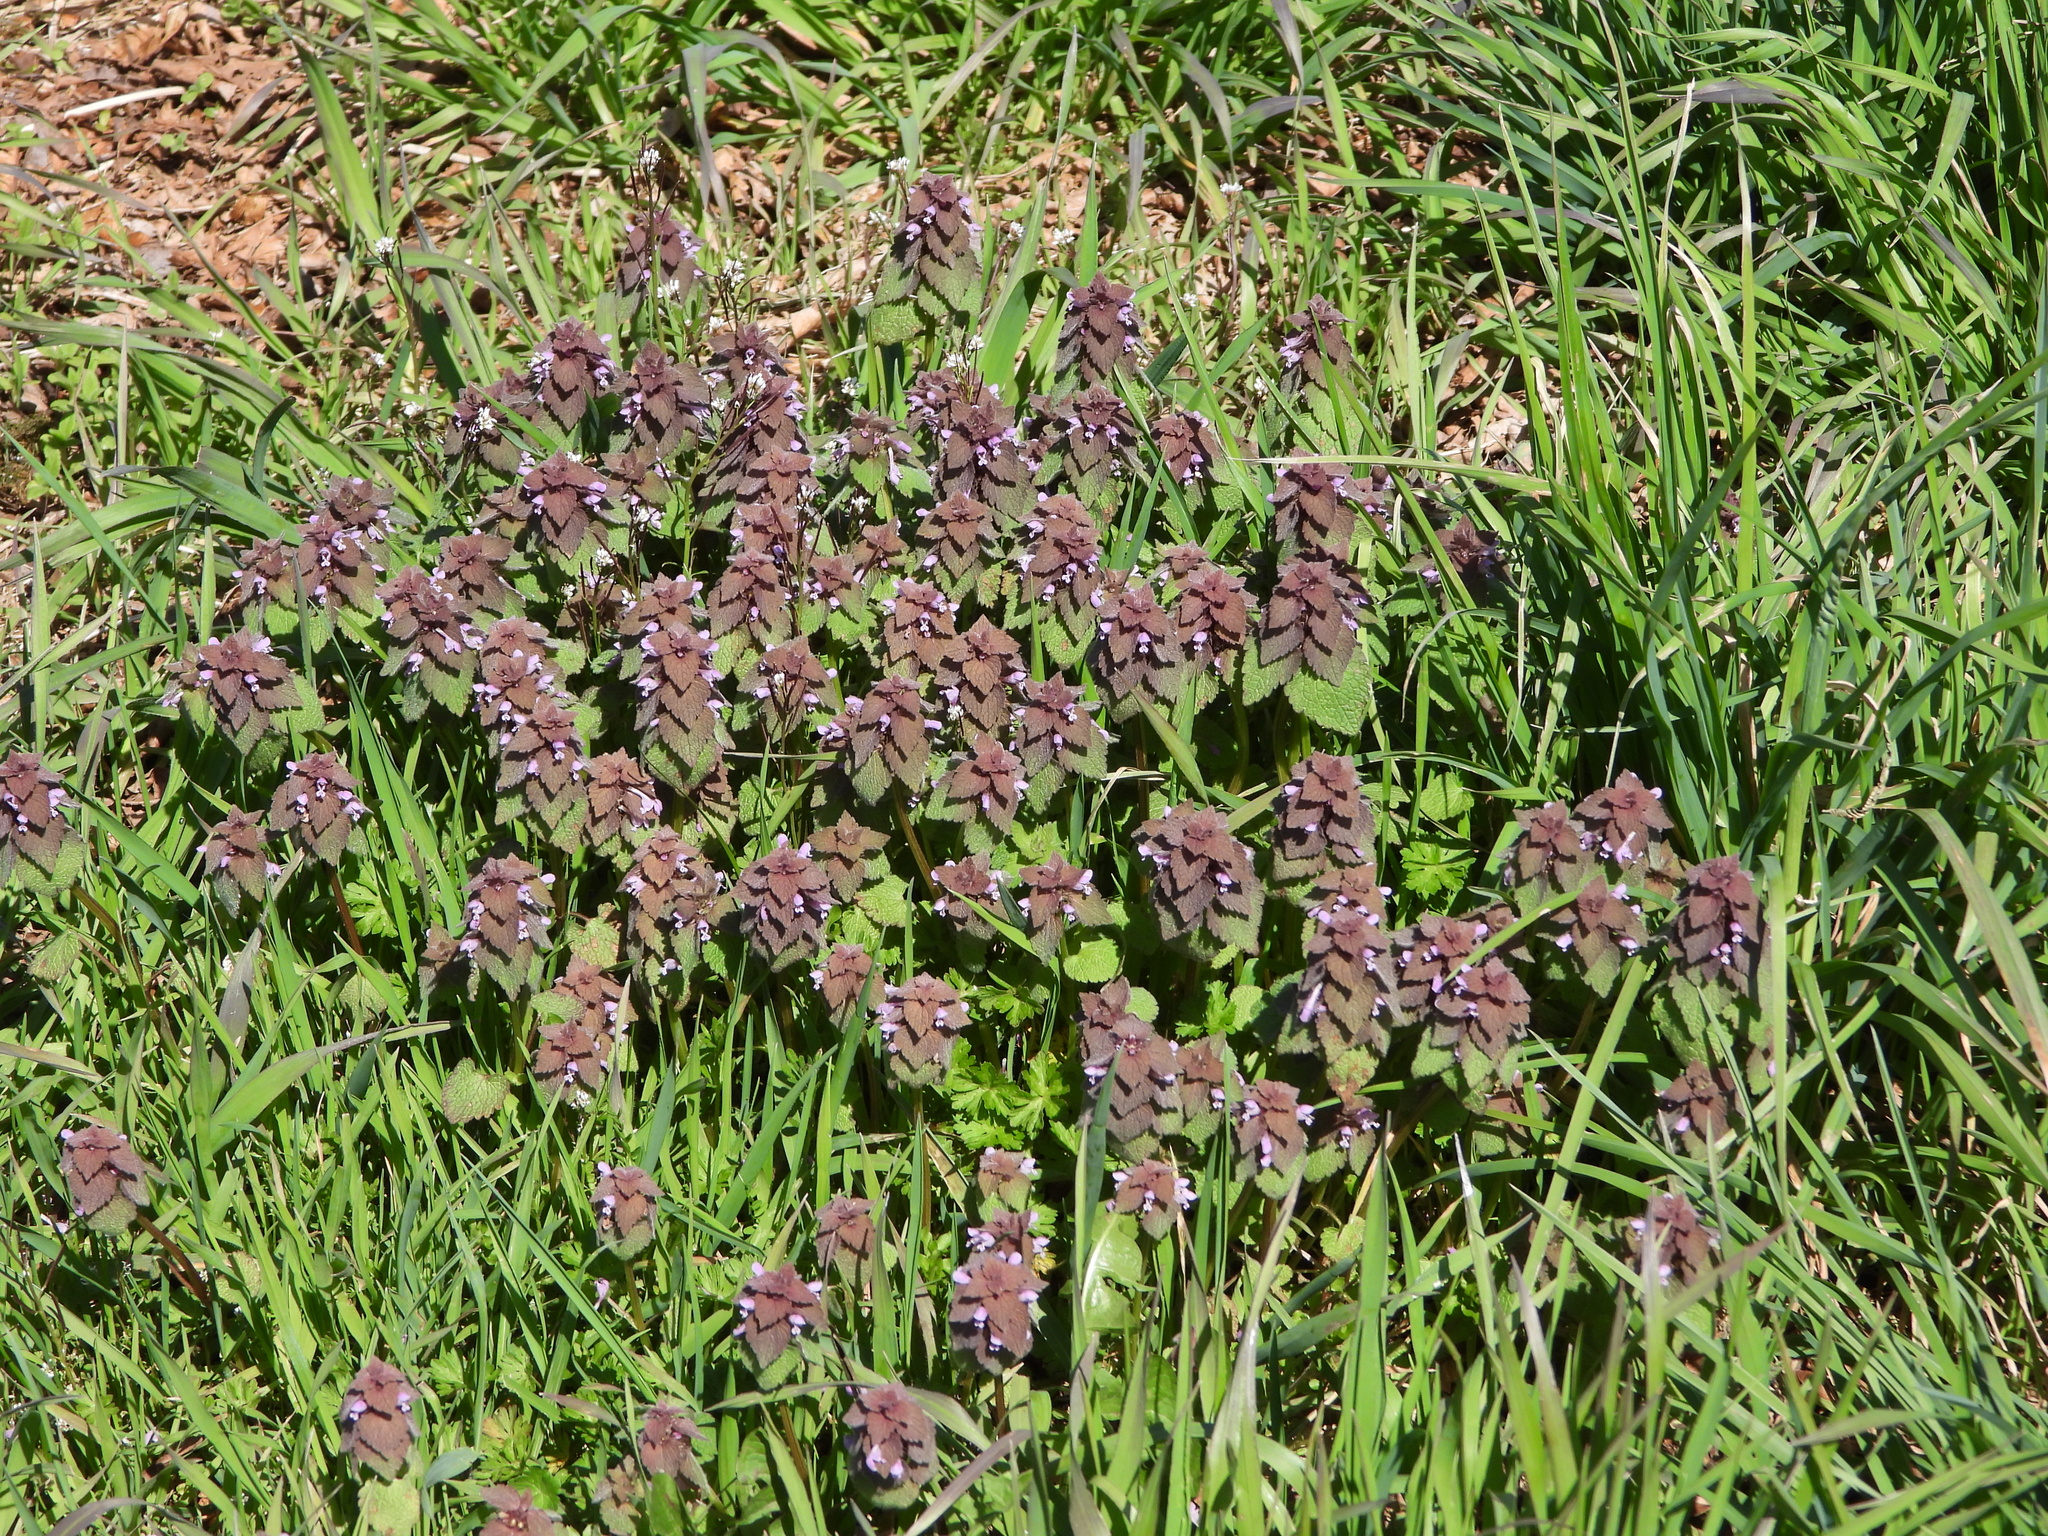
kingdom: Plantae
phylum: Tracheophyta
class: Magnoliopsida
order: Lamiales
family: Lamiaceae
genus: Lamium
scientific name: Lamium purpureum
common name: Red dead-nettle
